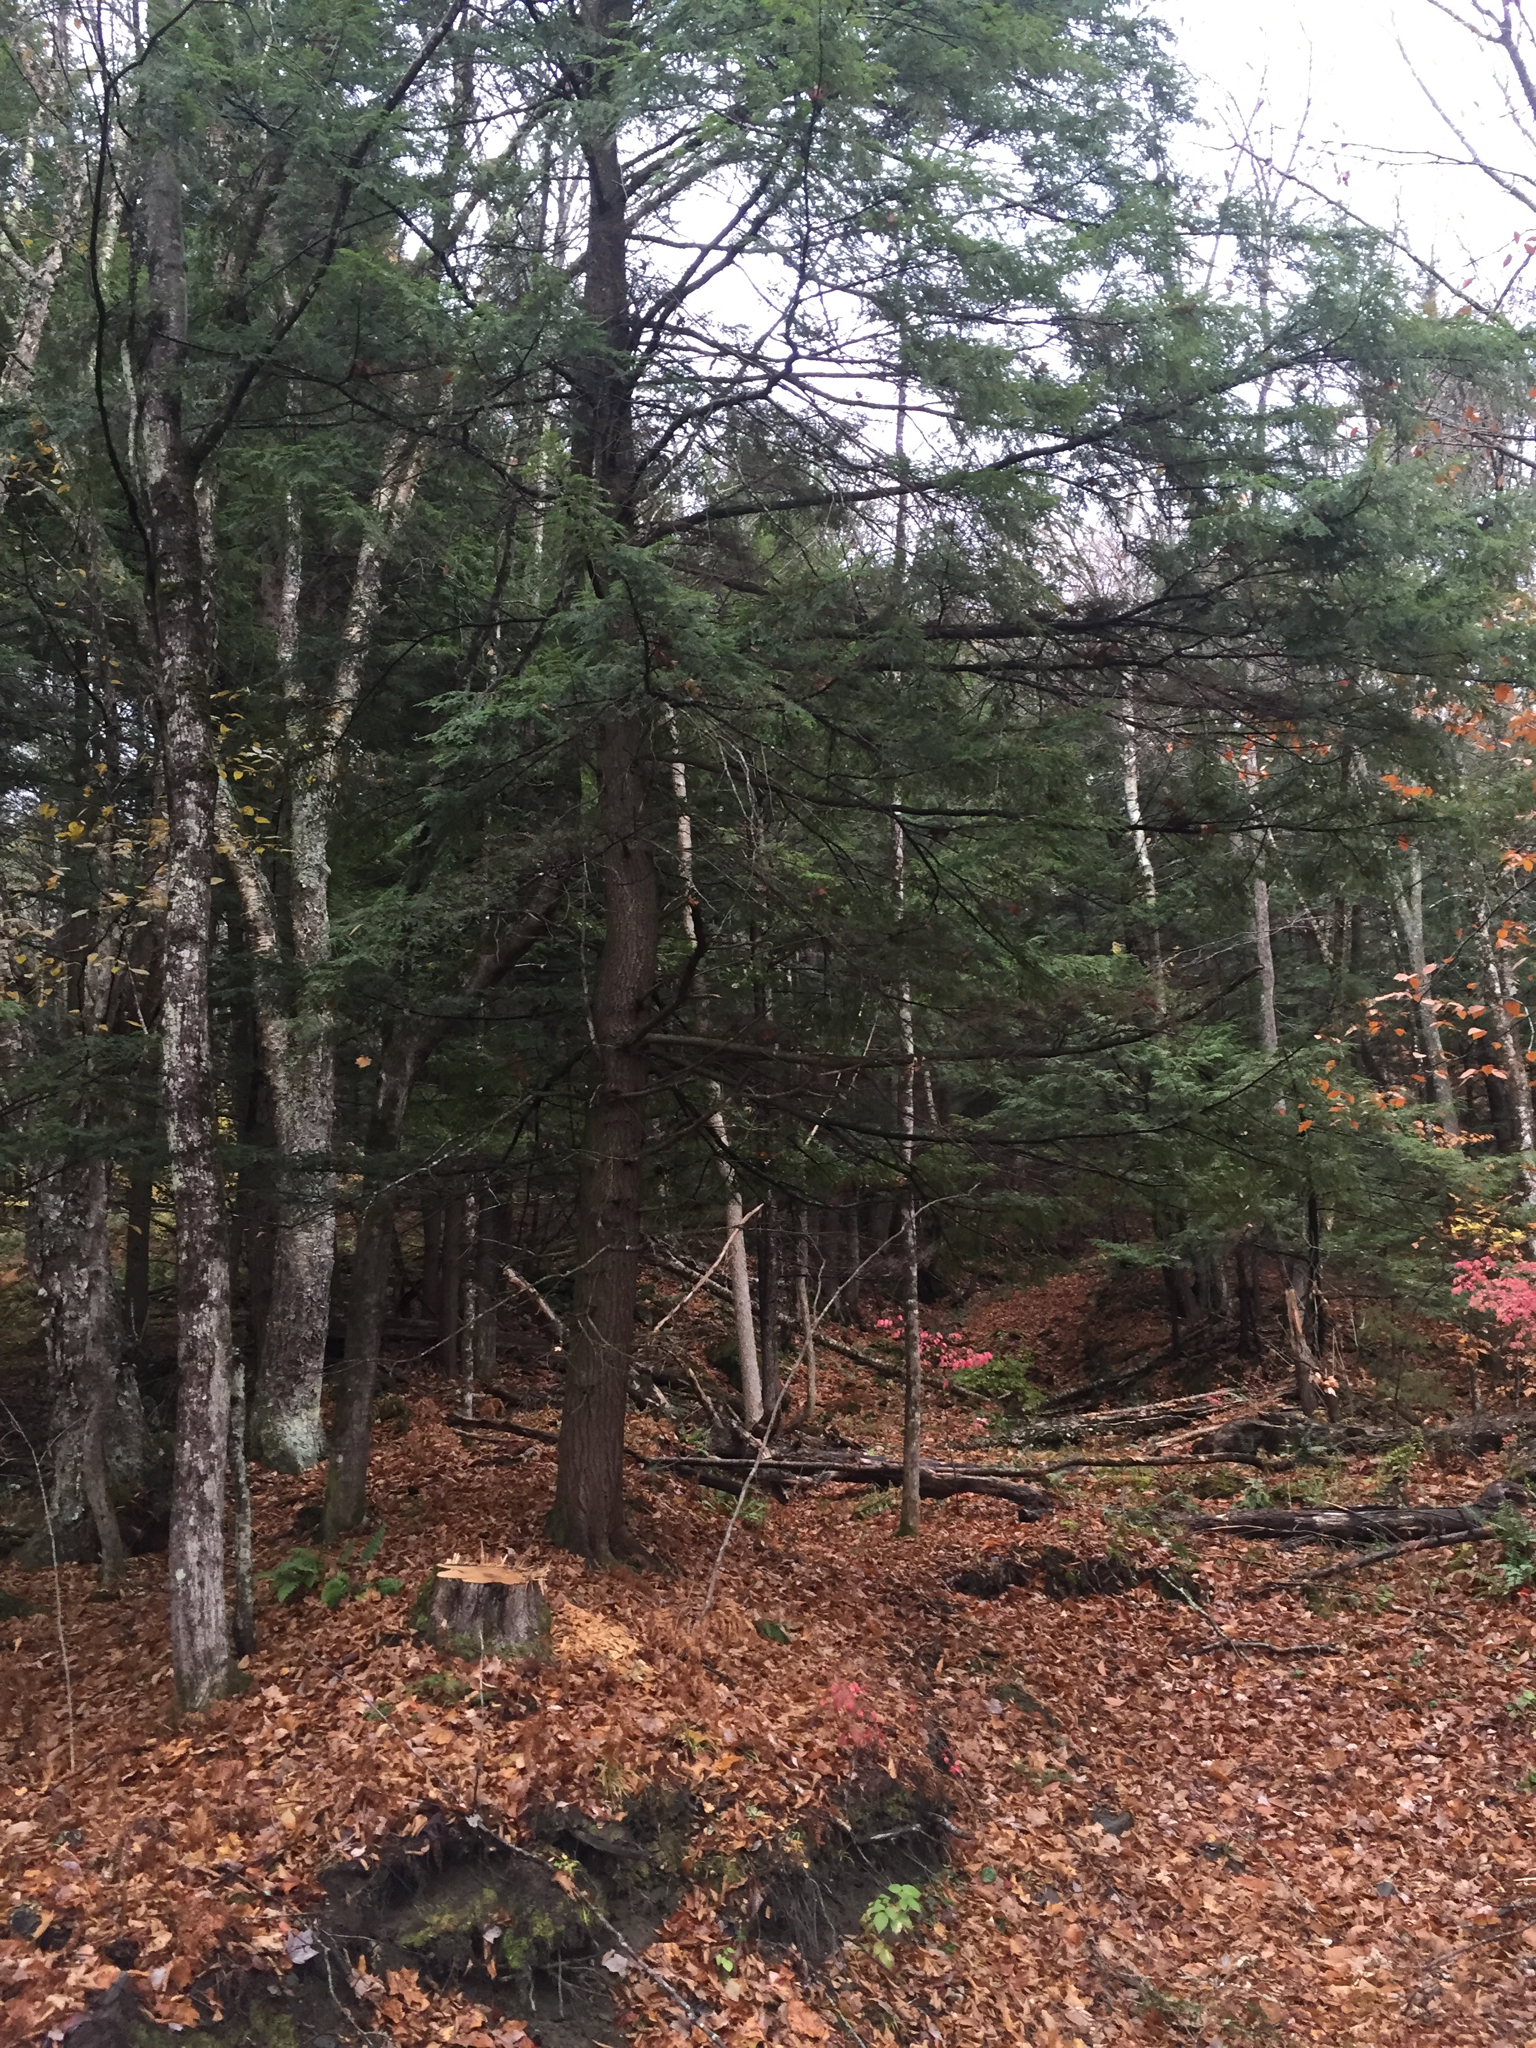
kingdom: Plantae
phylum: Tracheophyta
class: Pinopsida
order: Pinales
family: Pinaceae
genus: Tsuga
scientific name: Tsuga canadensis
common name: Eastern hemlock
